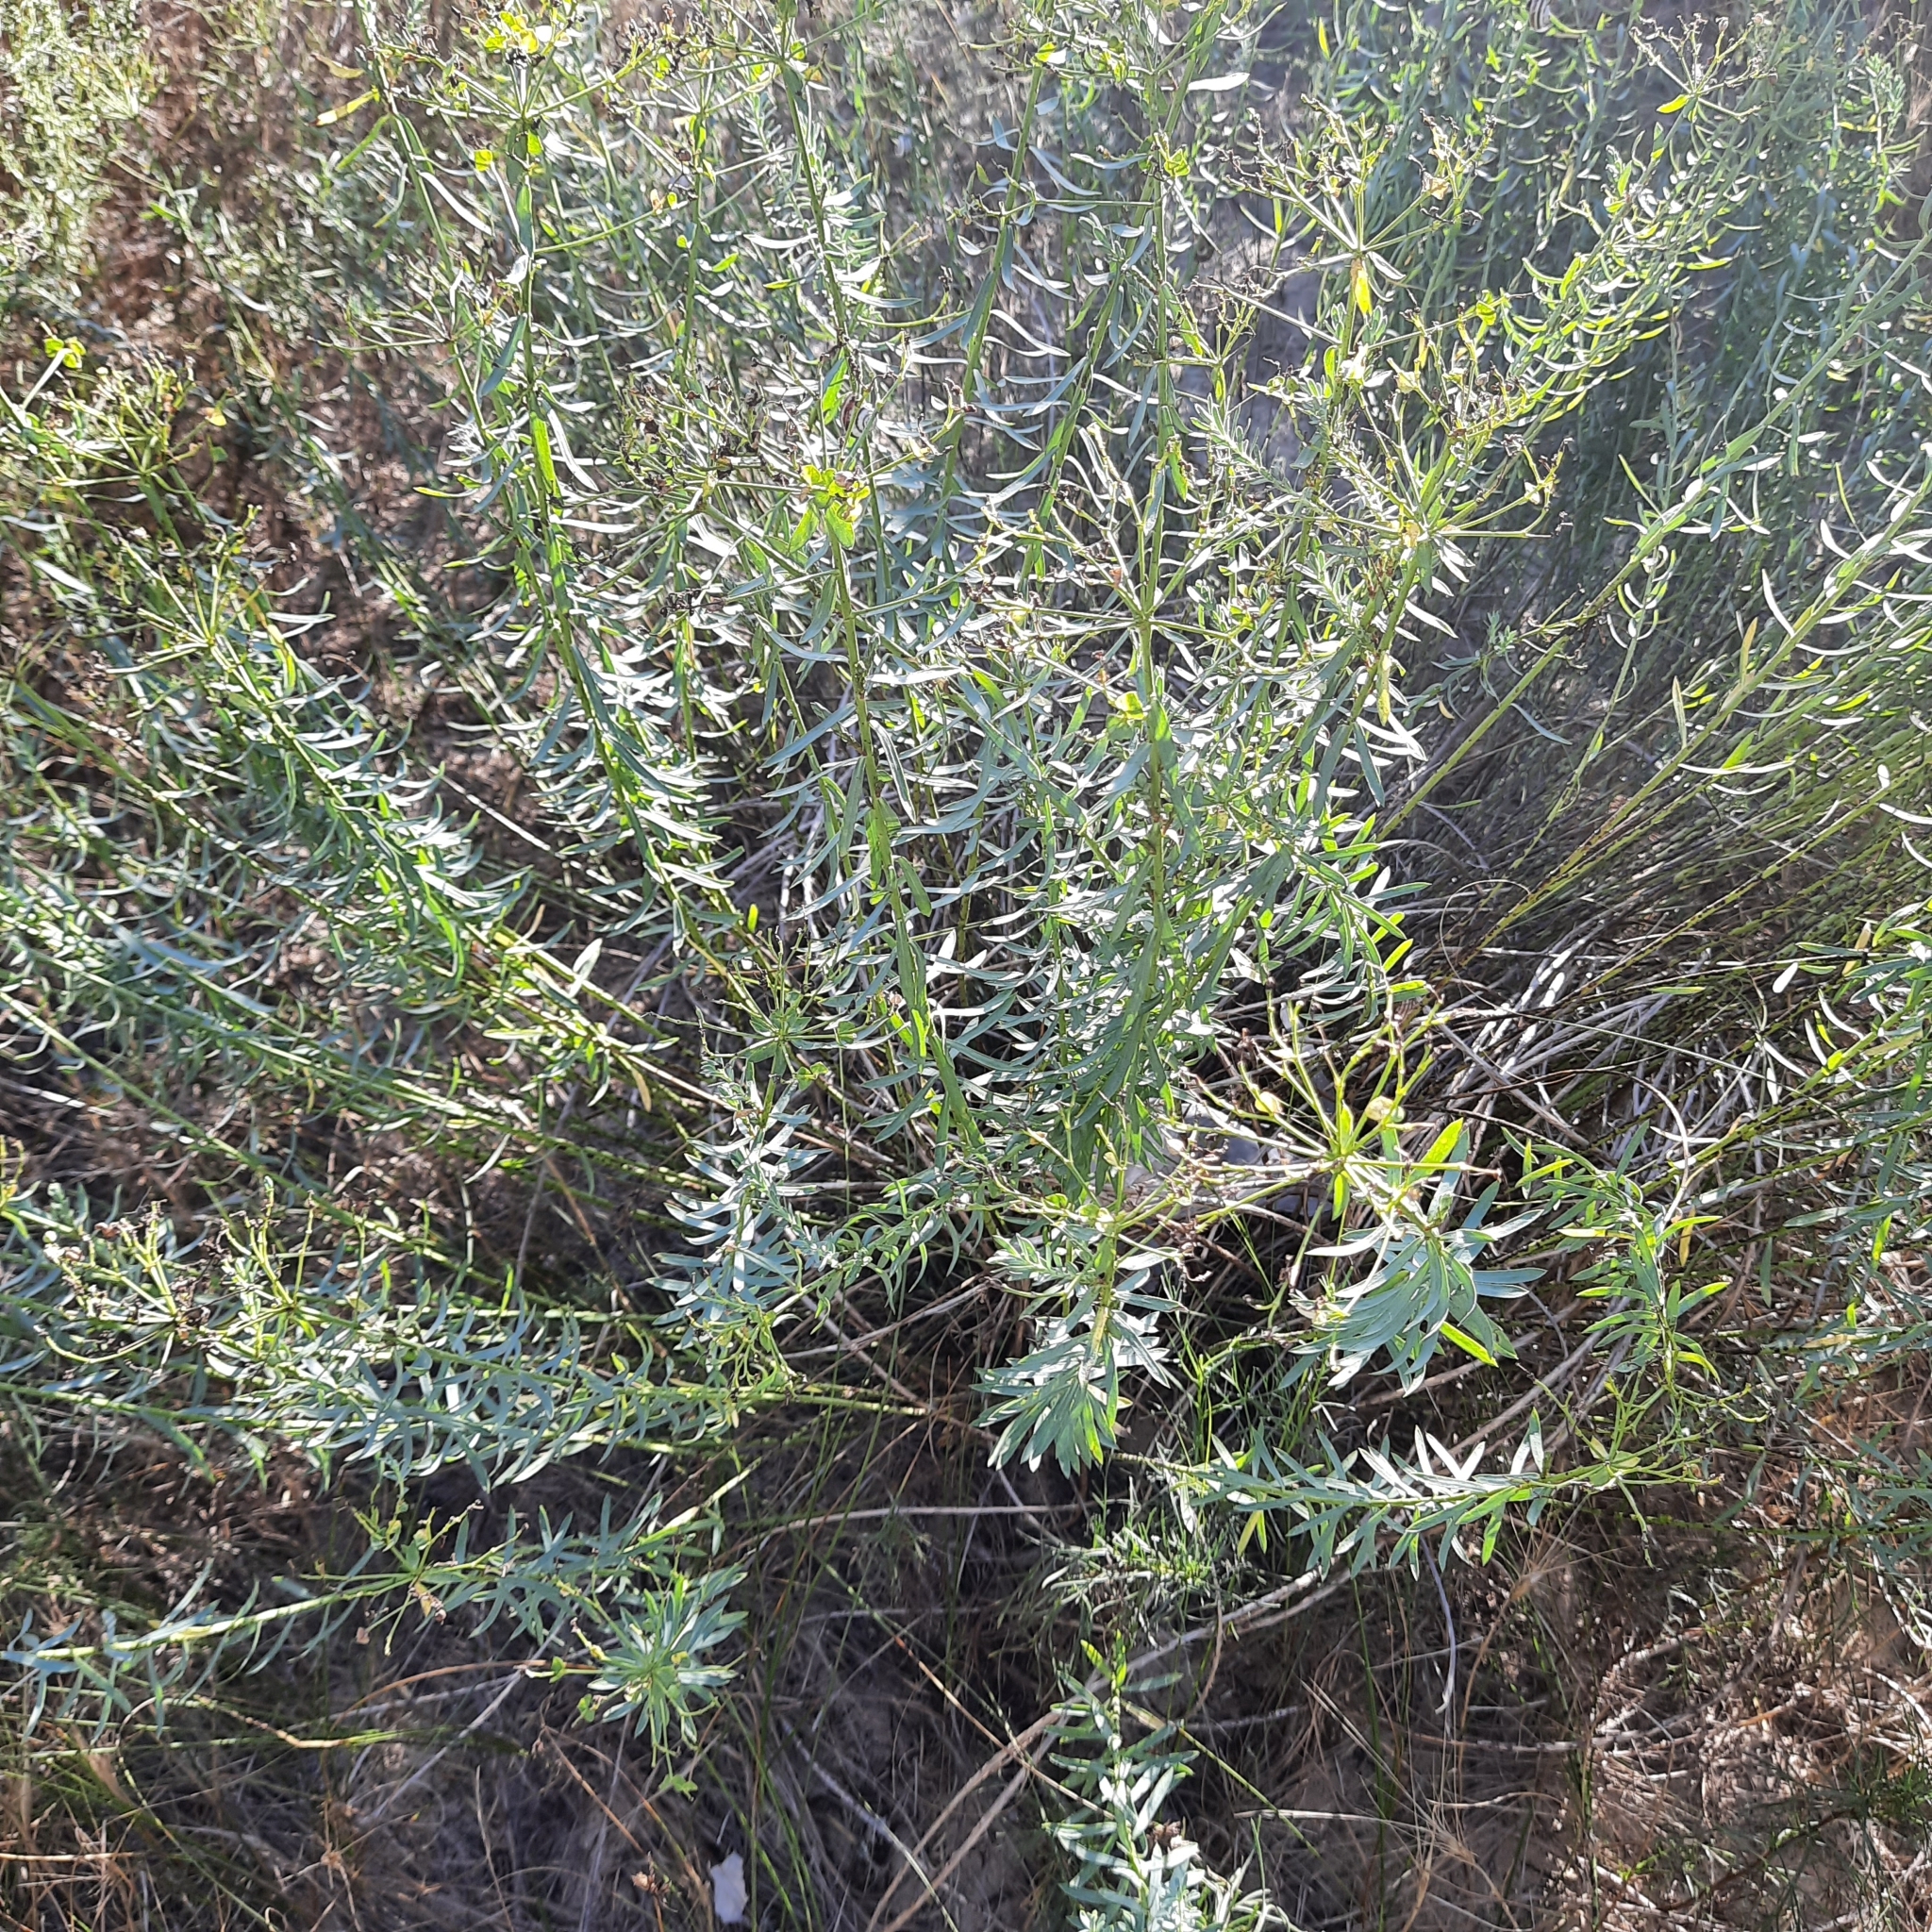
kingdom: Plantae
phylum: Tracheophyta
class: Magnoliopsida
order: Malpighiales
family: Euphorbiaceae
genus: Euphorbia
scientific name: Euphorbia seguieriana
